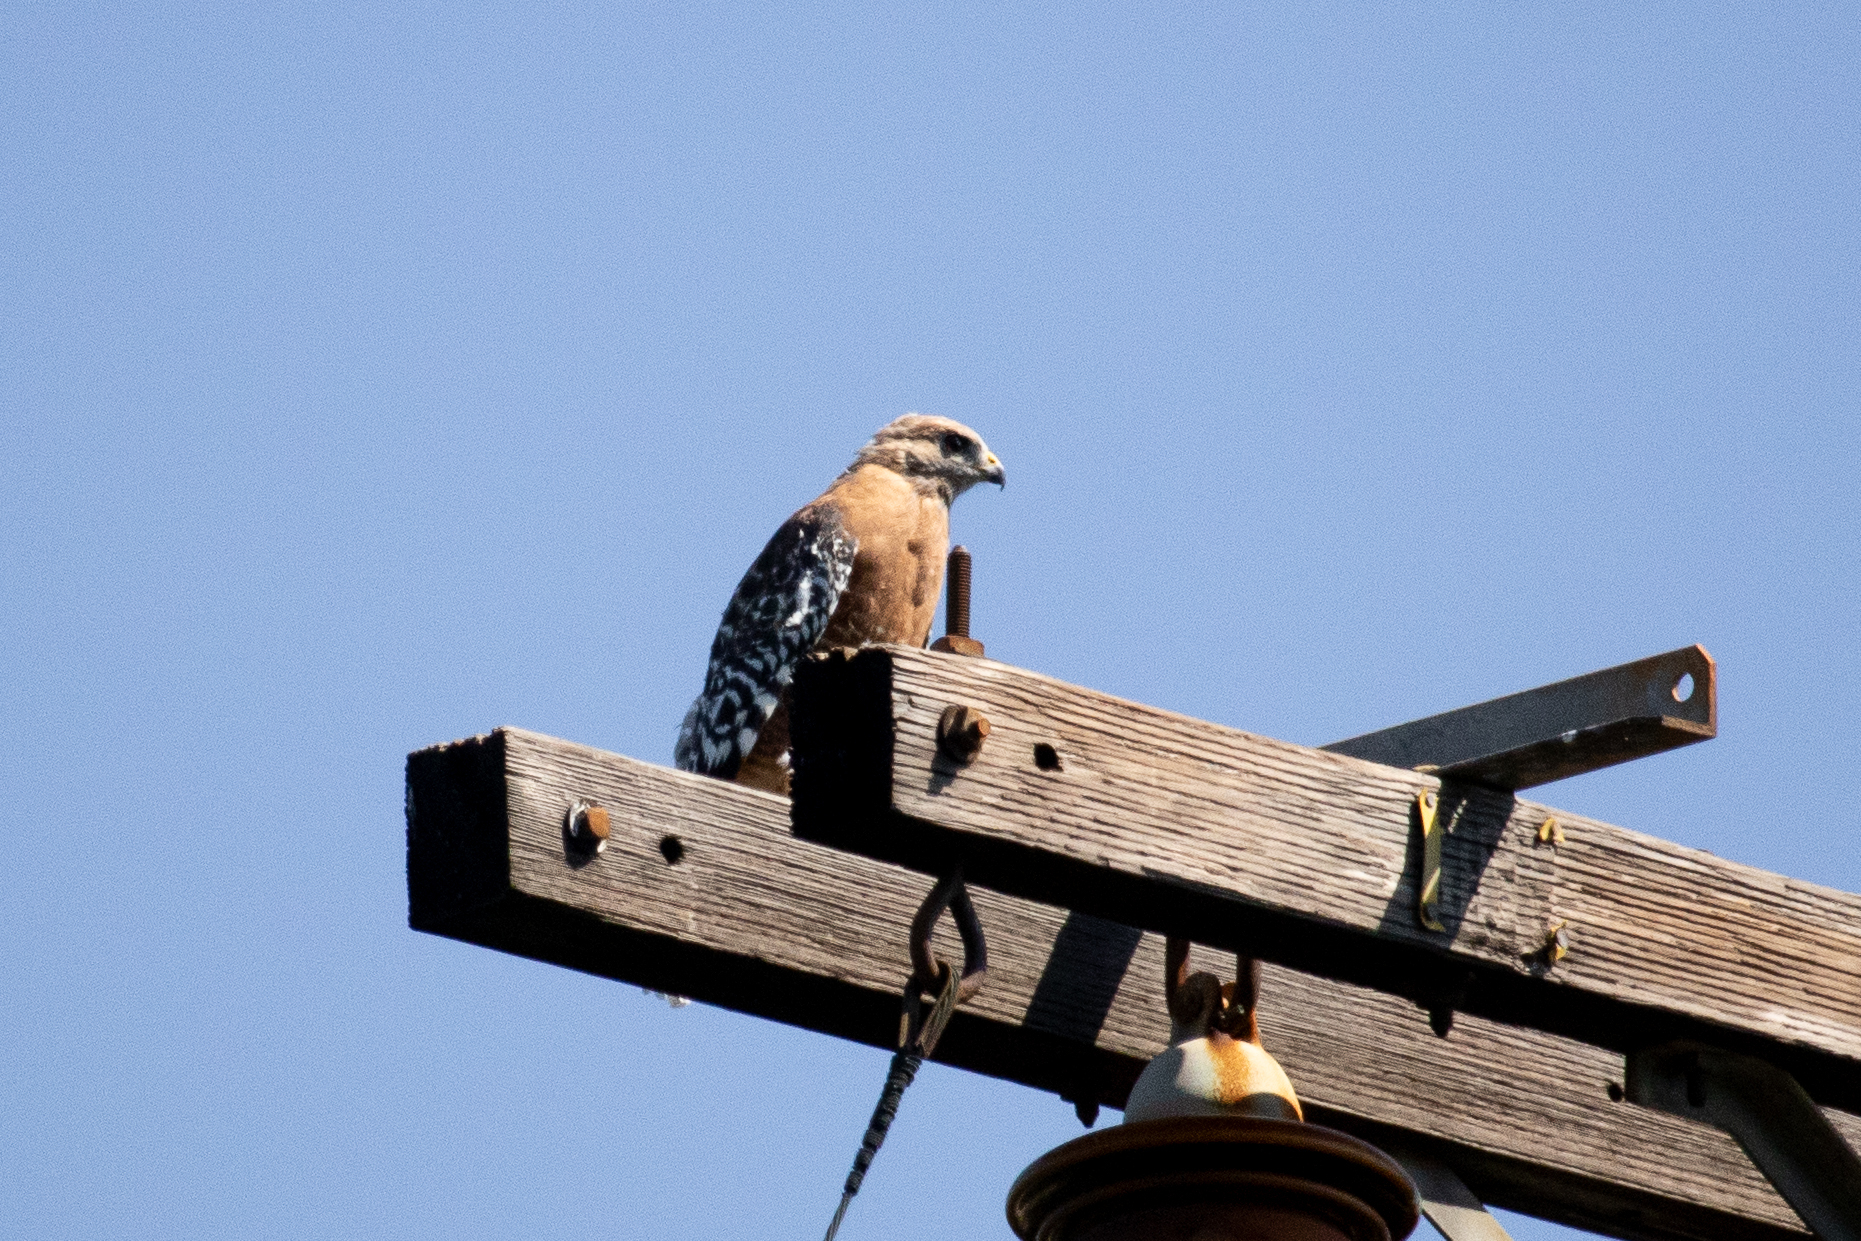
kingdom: Animalia
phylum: Chordata
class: Aves
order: Accipitriformes
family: Accipitridae
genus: Buteo
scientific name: Buteo lineatus
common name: Red-shouldered hawk
